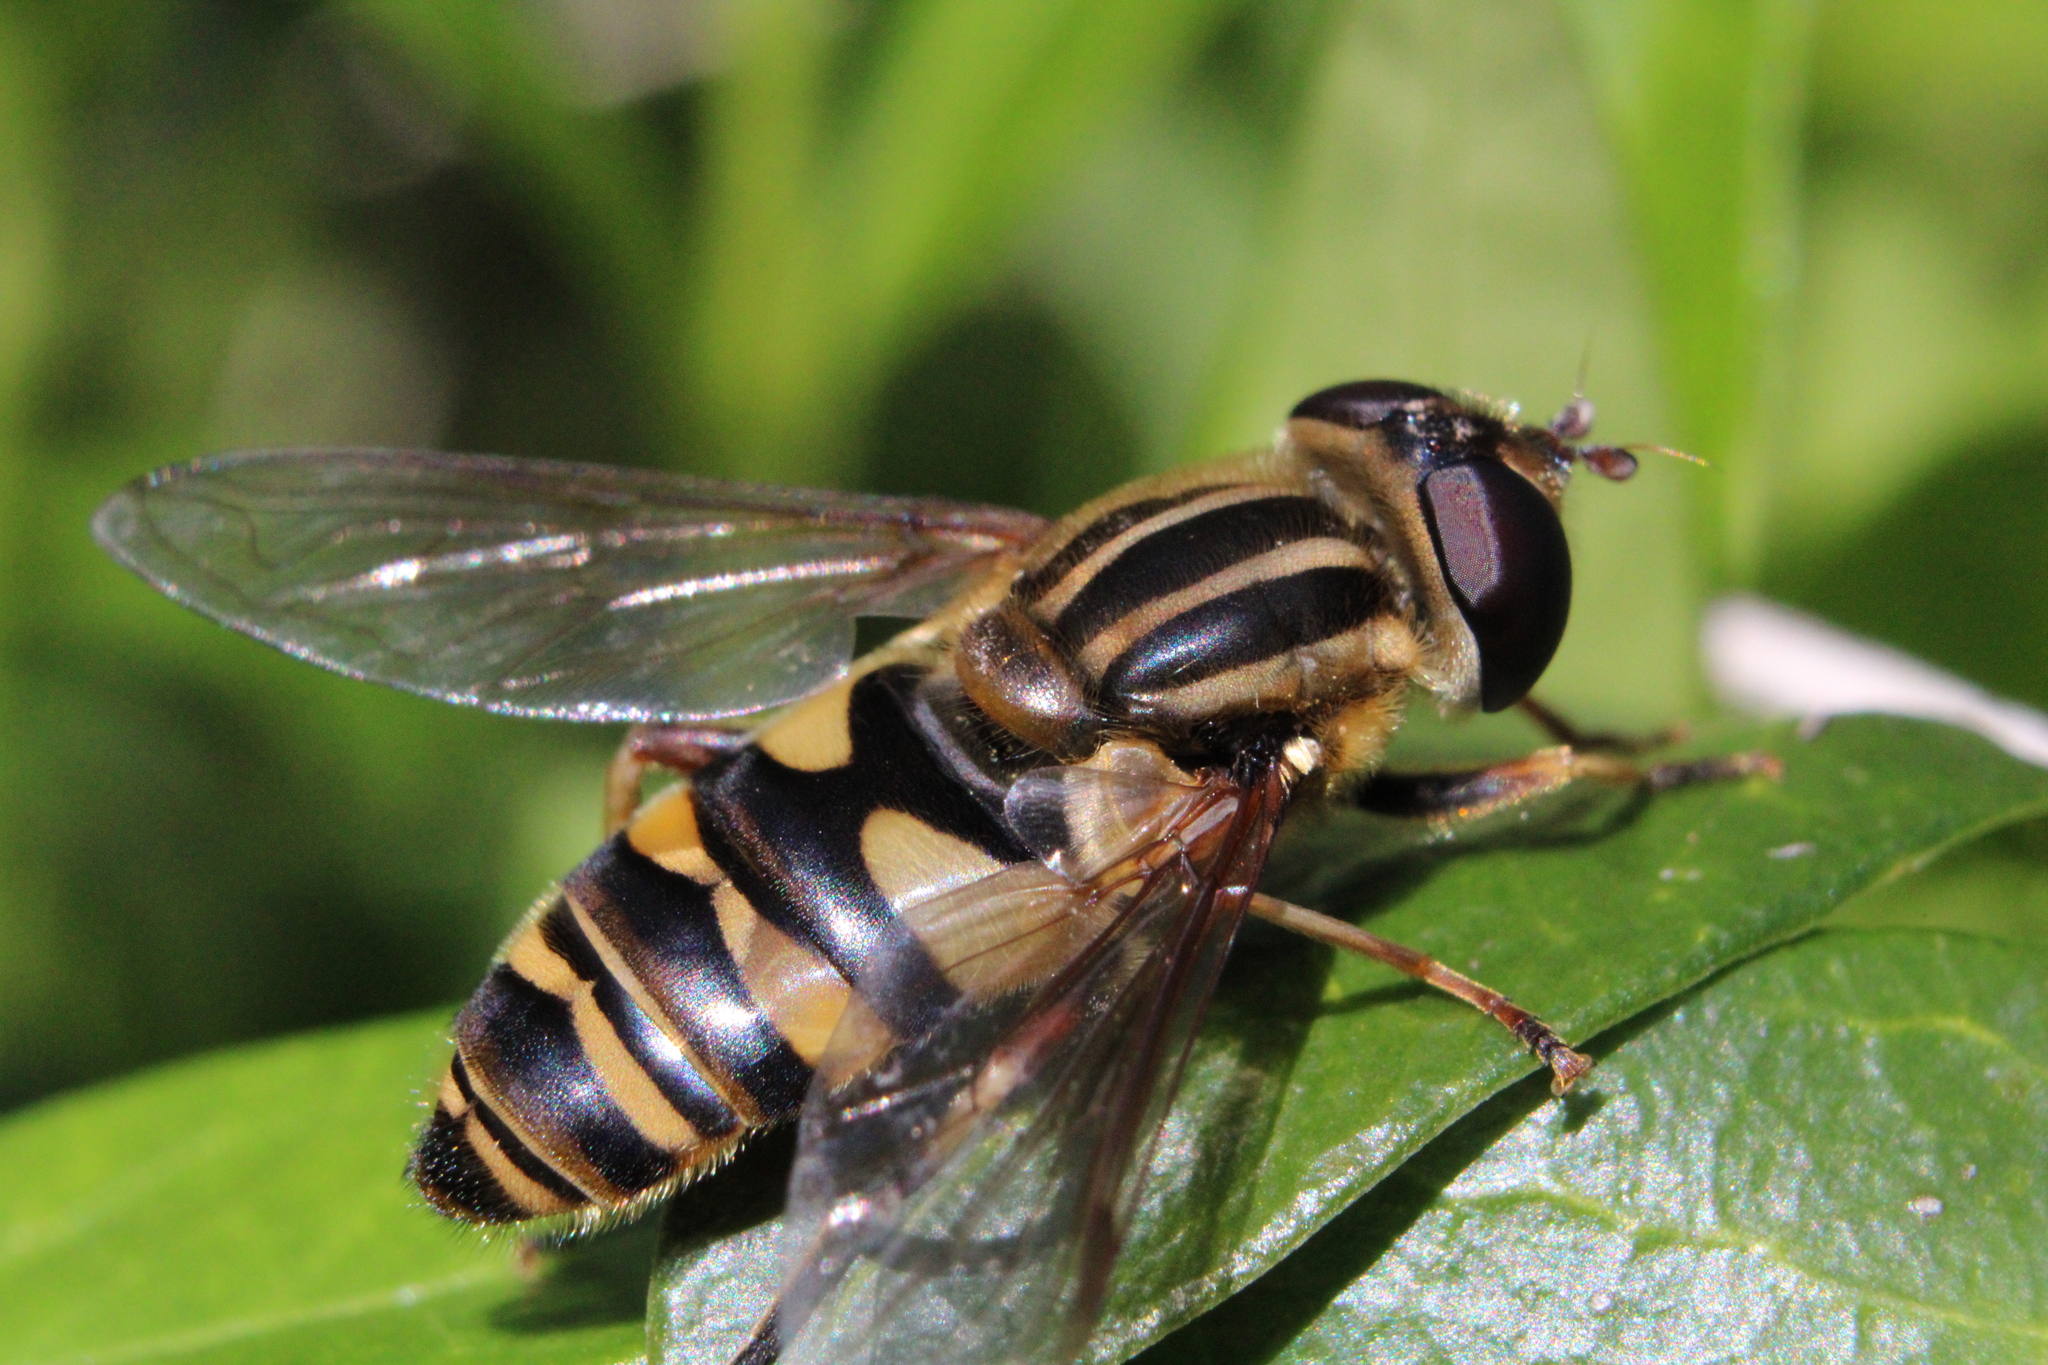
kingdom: Animalia
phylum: Arthropoda
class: Insecta
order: Diptera
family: Syrphidae
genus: Helophilus
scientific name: Helophilus fasciatus
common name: Narrow-headed marsh fly
